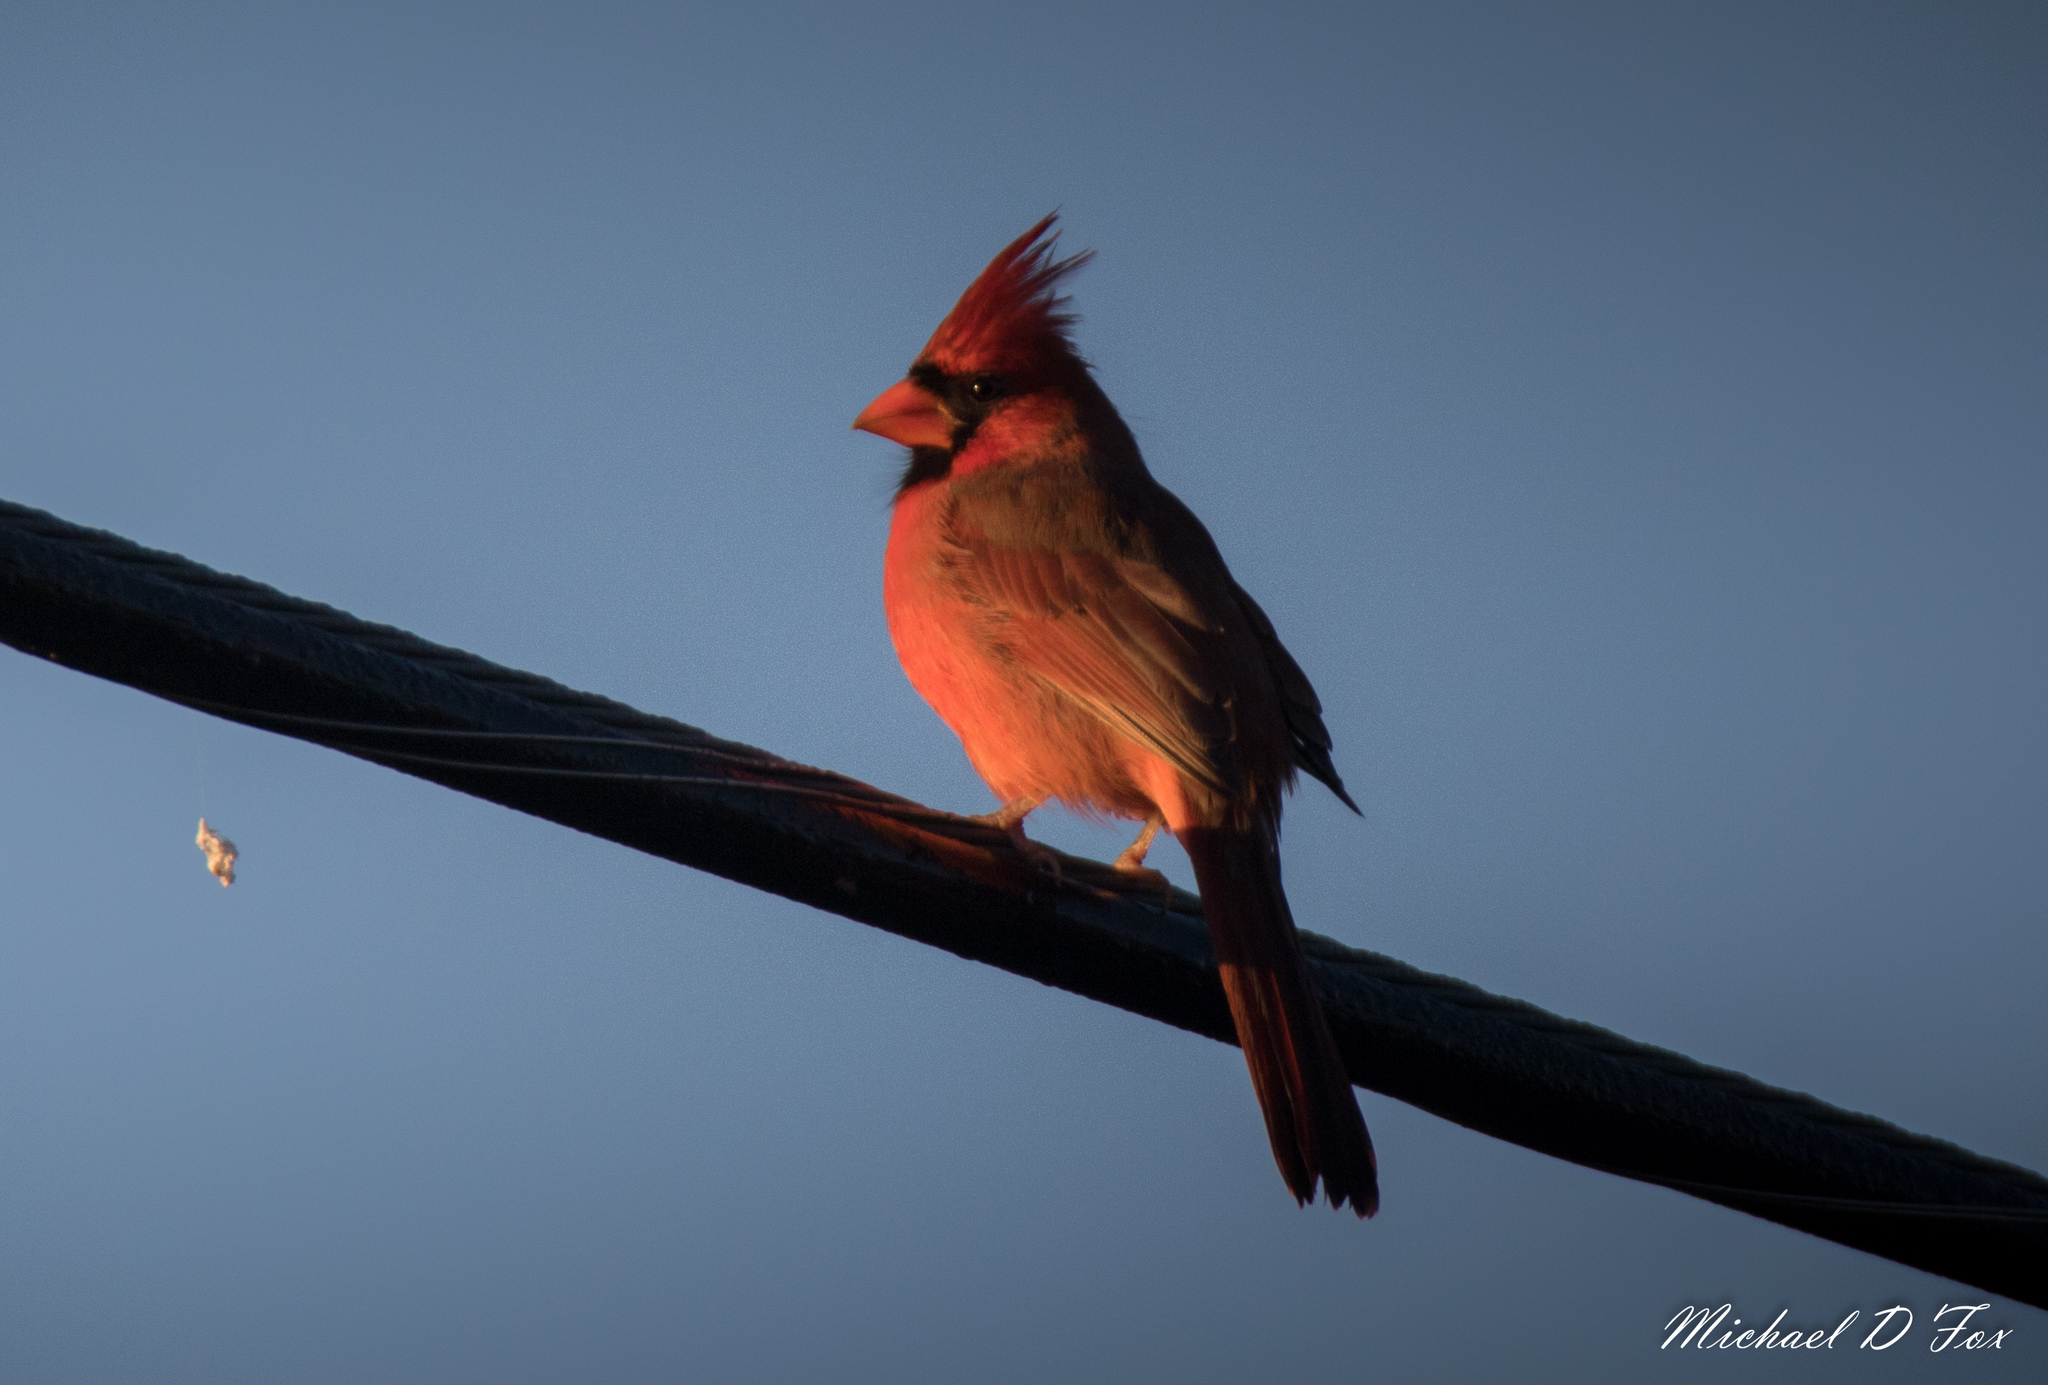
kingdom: Animalia
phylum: Chordata
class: Aves
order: Passeriformes
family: Cardinalidae
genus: Cardinalis
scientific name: Cardinalis cardinalis
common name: Northern cardinal
